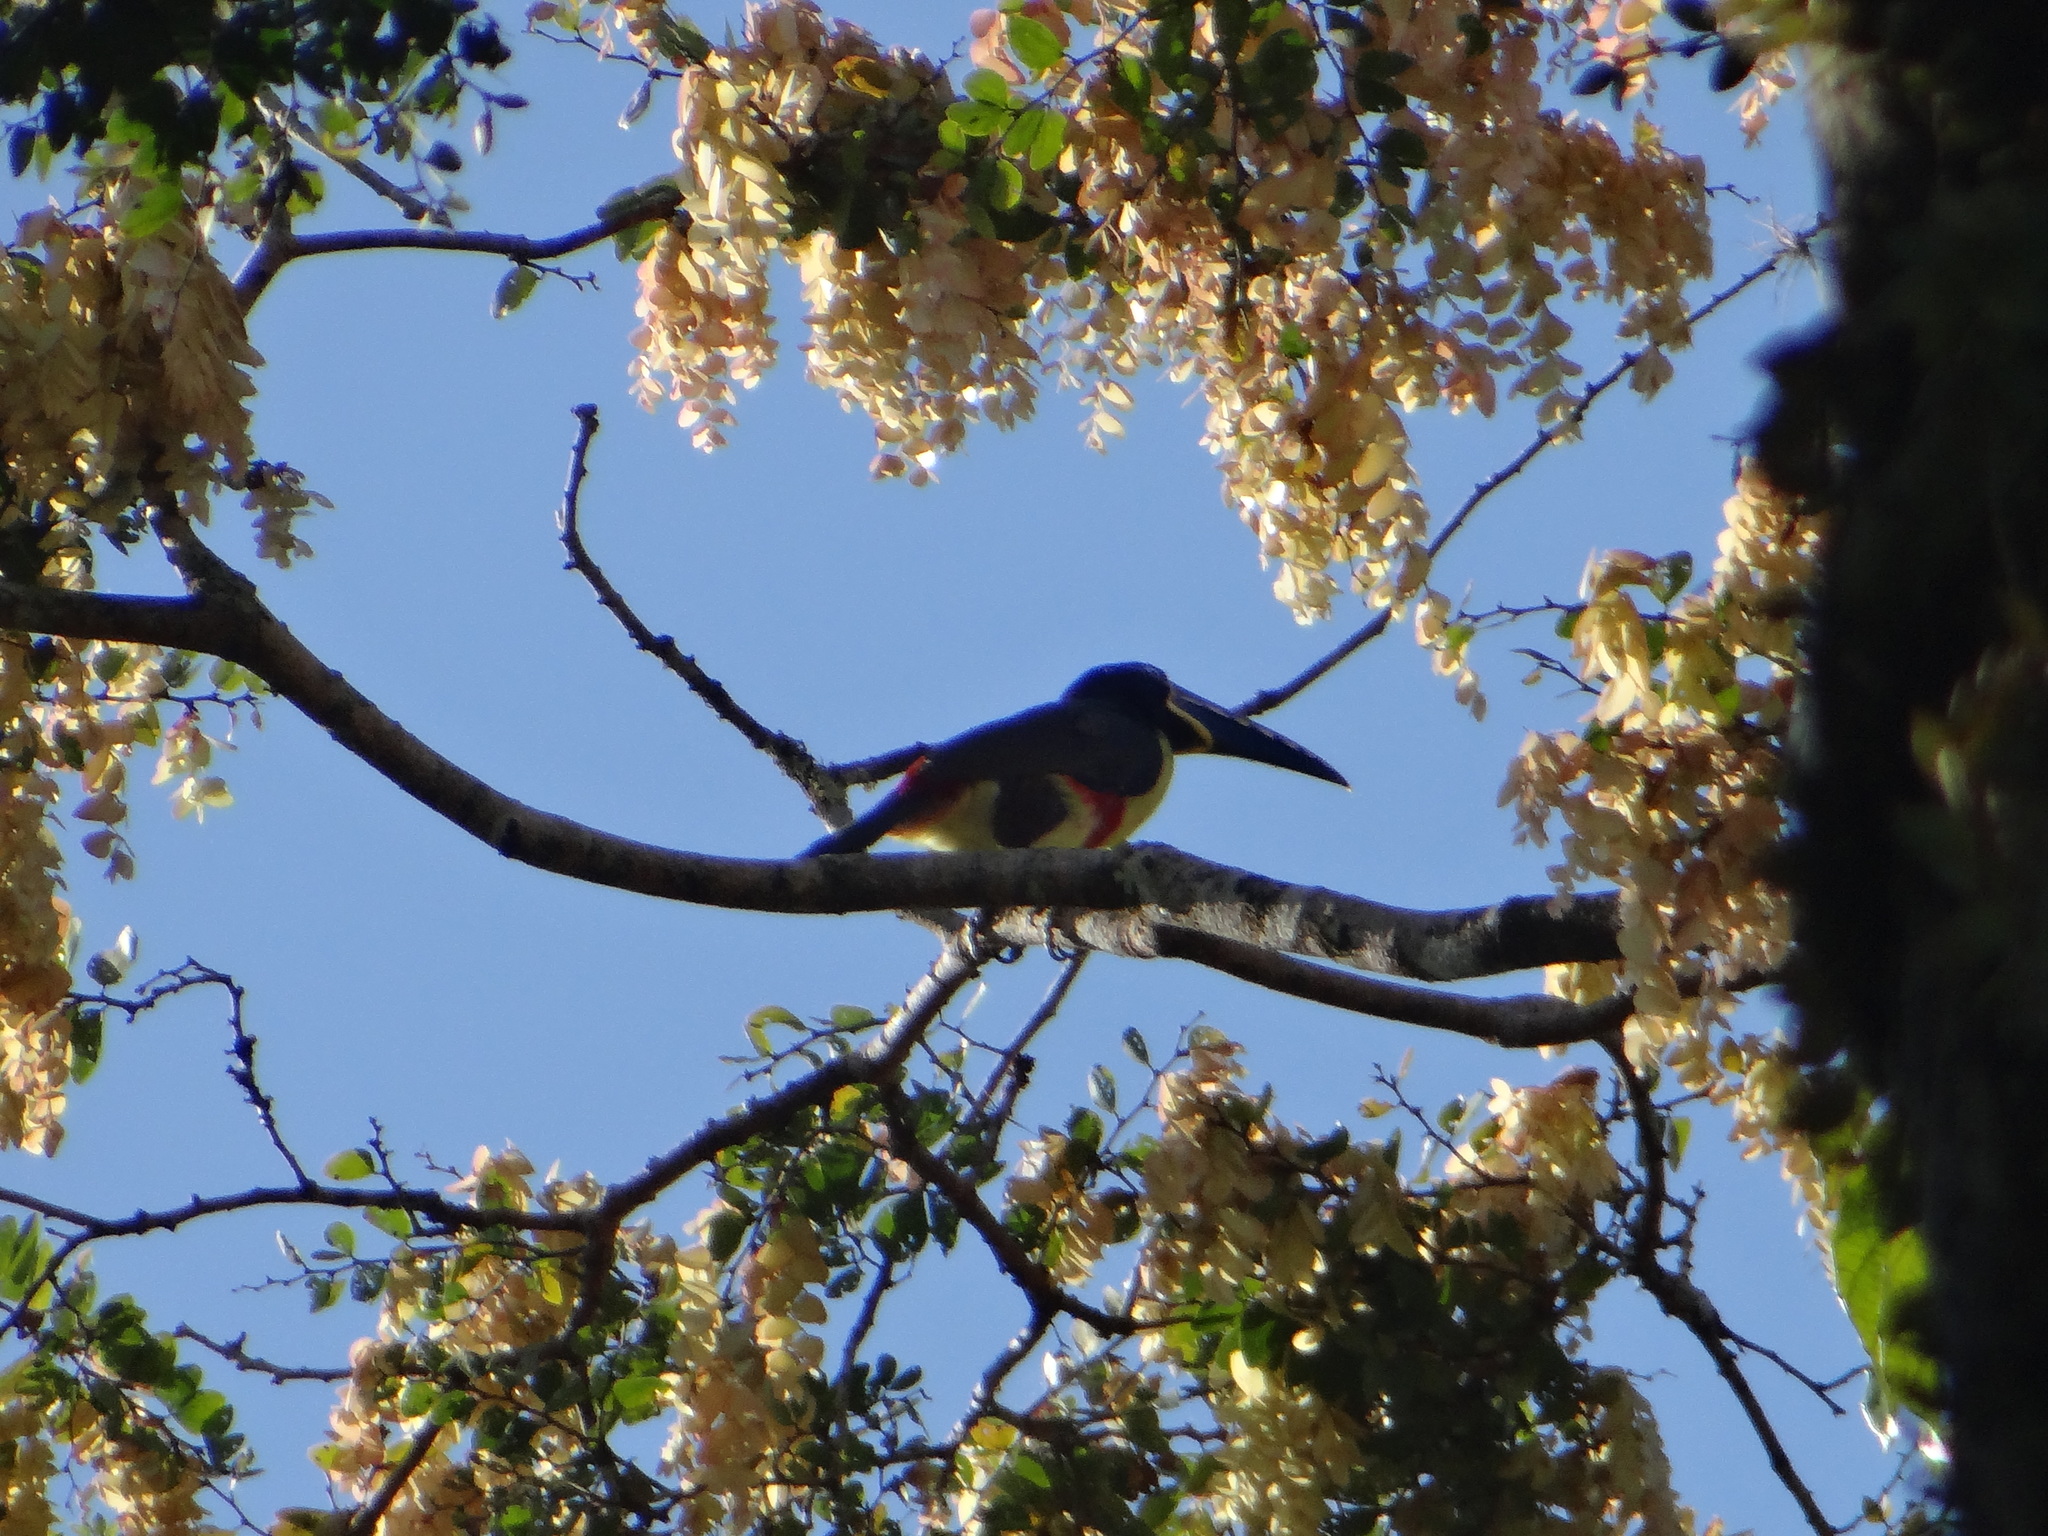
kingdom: Animalia
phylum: Chordata
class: Aves
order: Piciformes
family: Ramphastidae
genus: Pteroglossus
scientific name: Pteroglossus castanotis
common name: Chestnut-eared aracari
